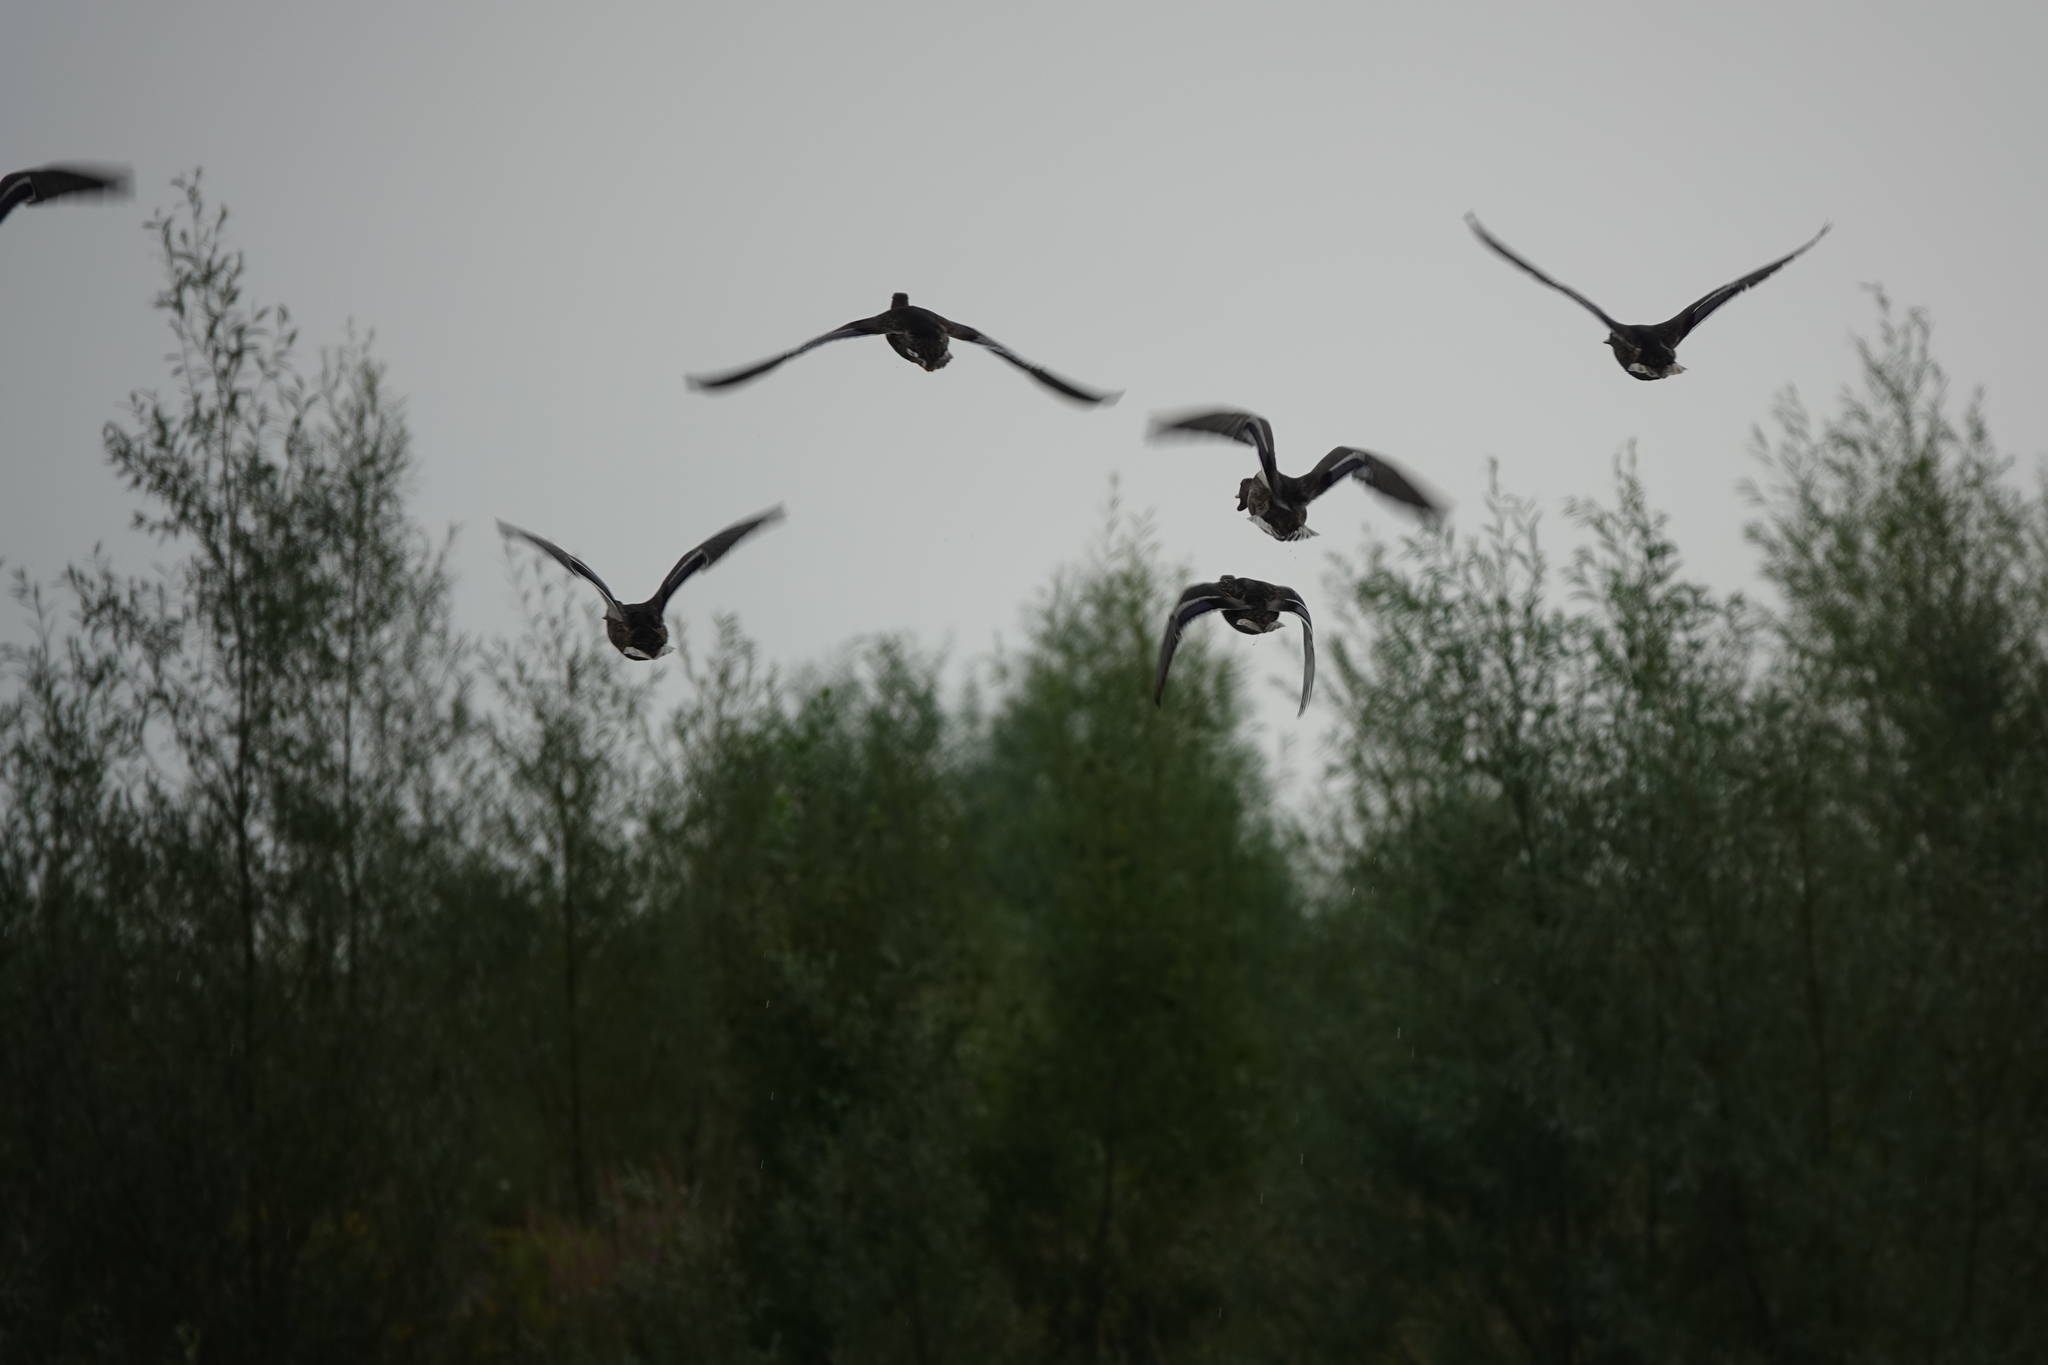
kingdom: Animalia
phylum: Chordata
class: Aves
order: Anseriformes
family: Anatidae
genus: Anas
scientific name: Anas platyrhynchos
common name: Mallard
